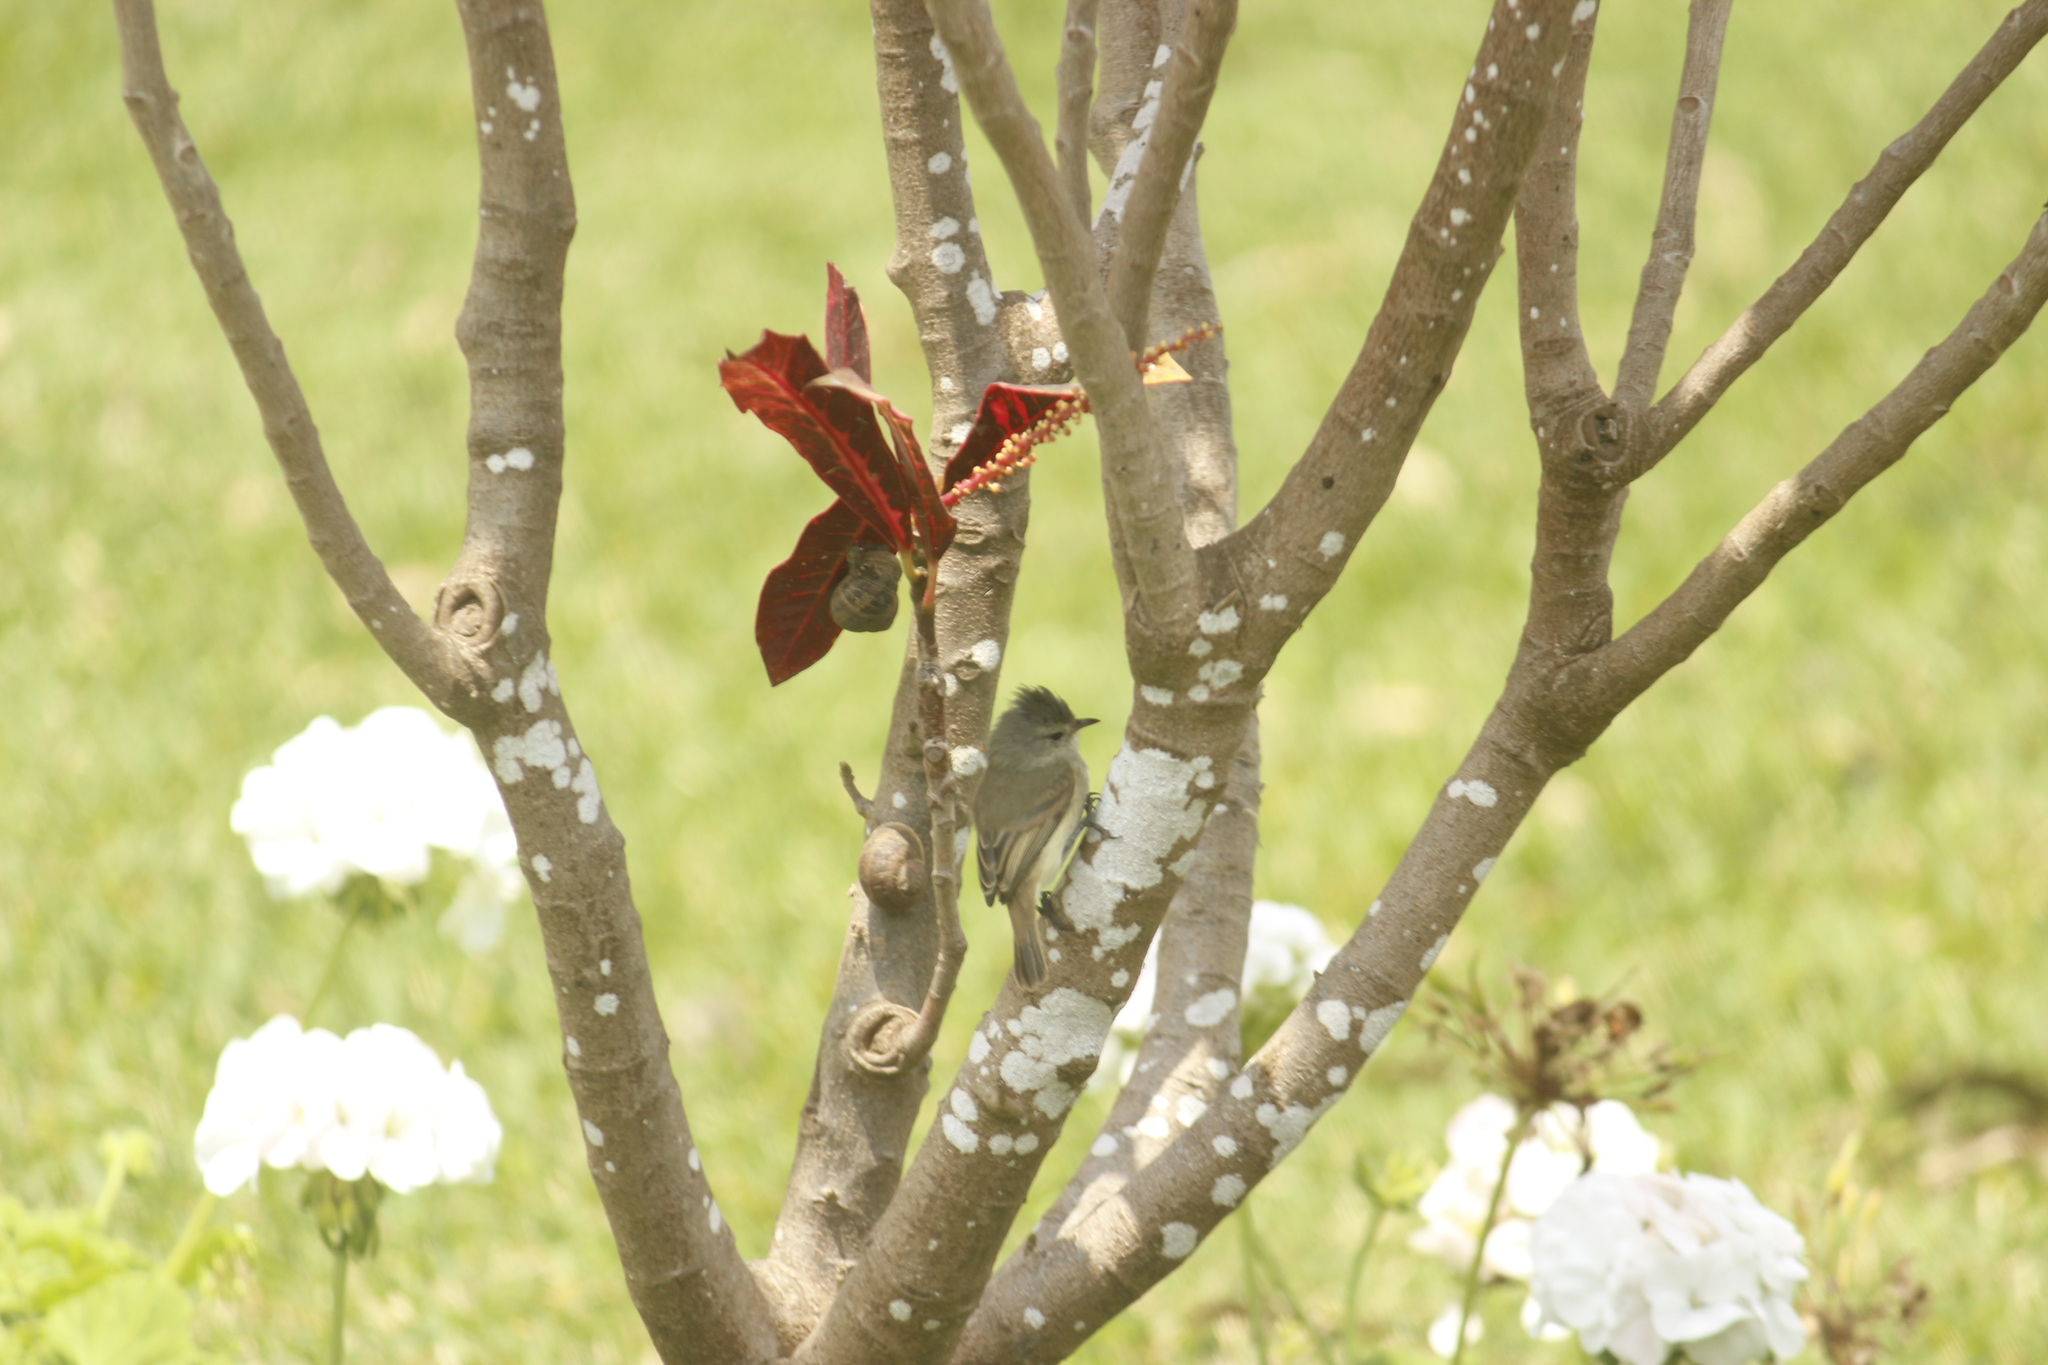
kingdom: Animalia
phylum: Chordata
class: Aves
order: Passeriformes
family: Tyrannidae
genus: Camptostoma
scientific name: Camptostoma obsoletum
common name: Southern beardless-tyrannulet
